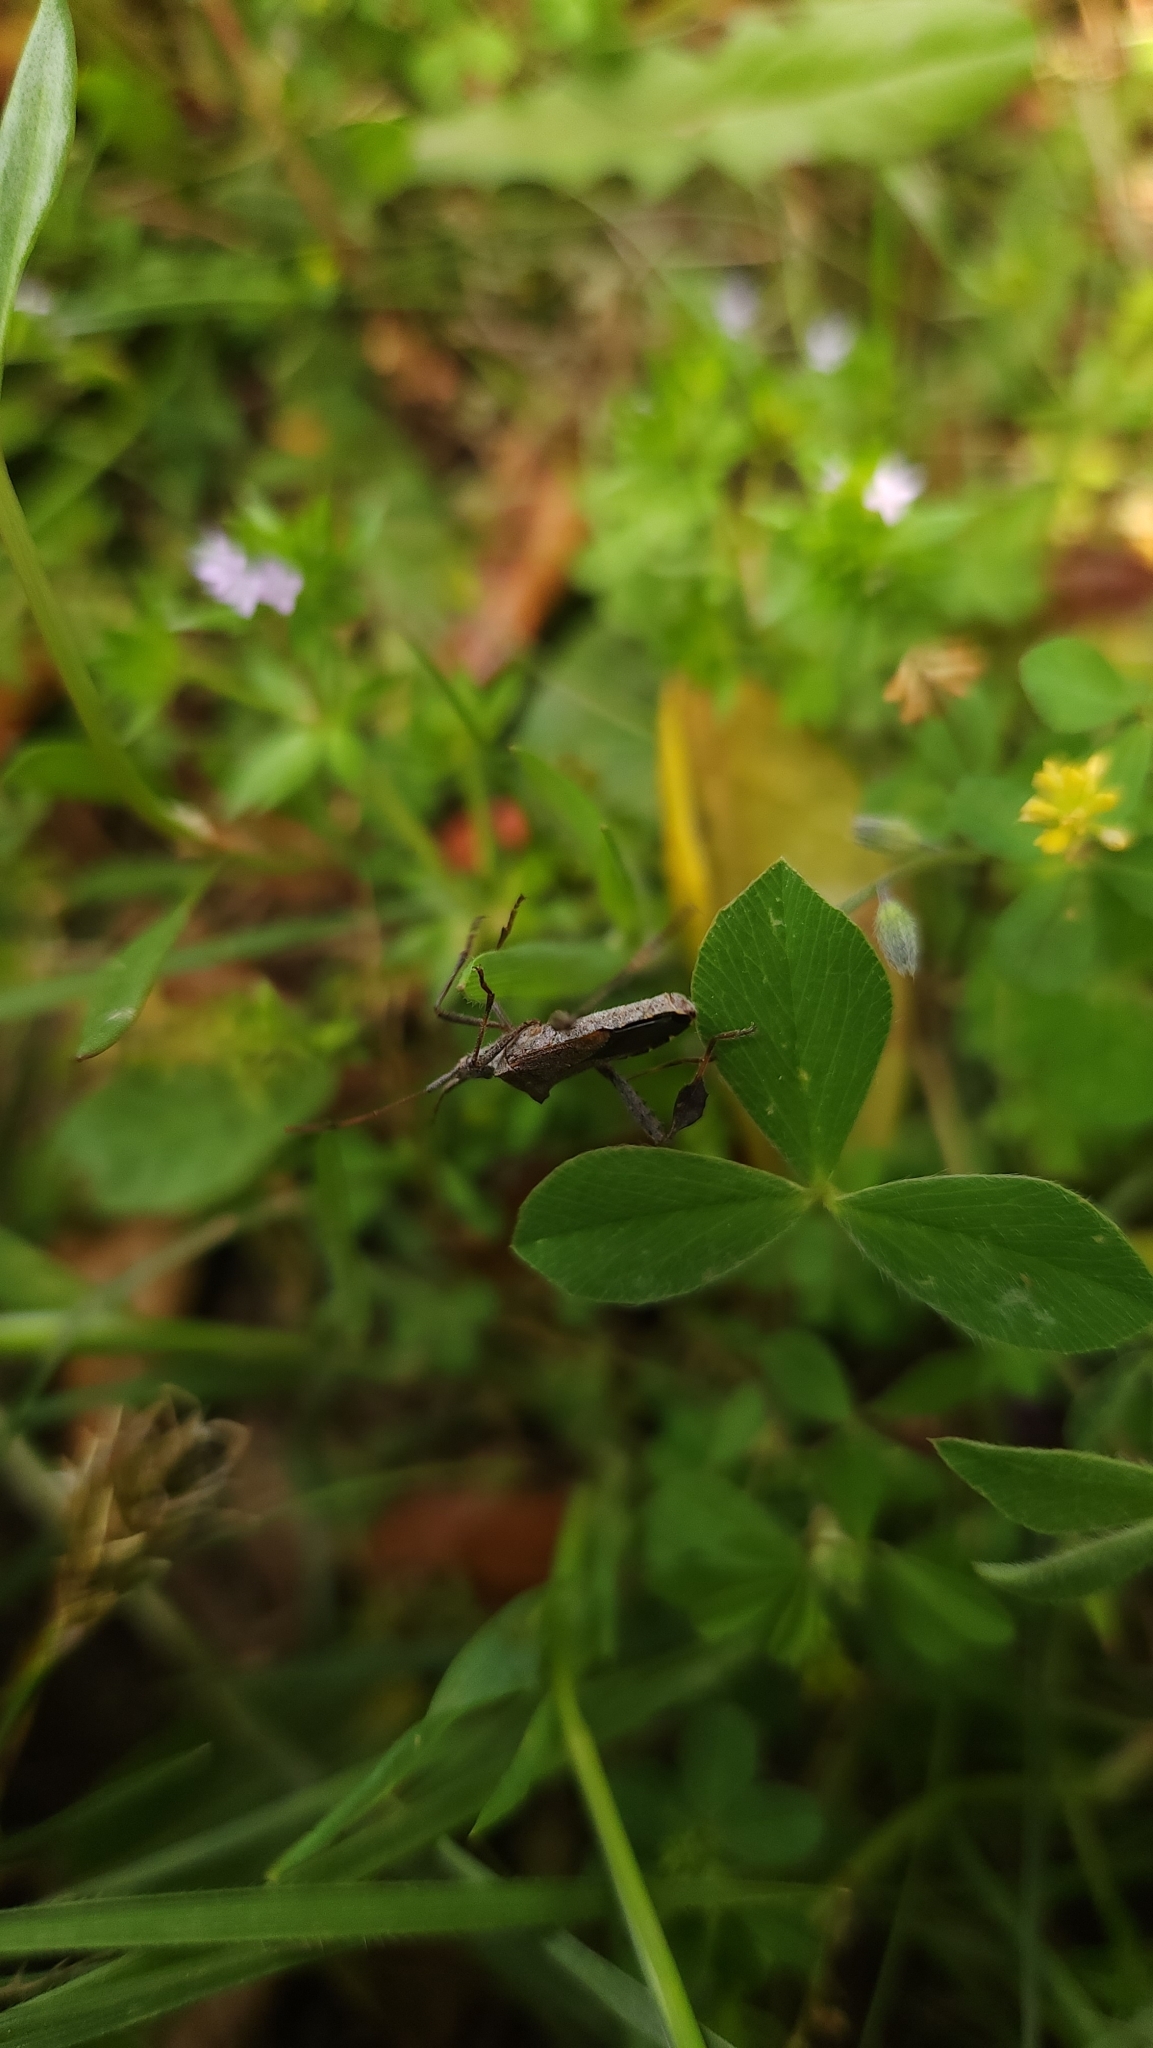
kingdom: Animalia
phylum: Arthropoda
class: Insecta
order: Hemiptera
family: Coreidae
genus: Leptoglossus
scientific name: Leptoglossus chilensis
